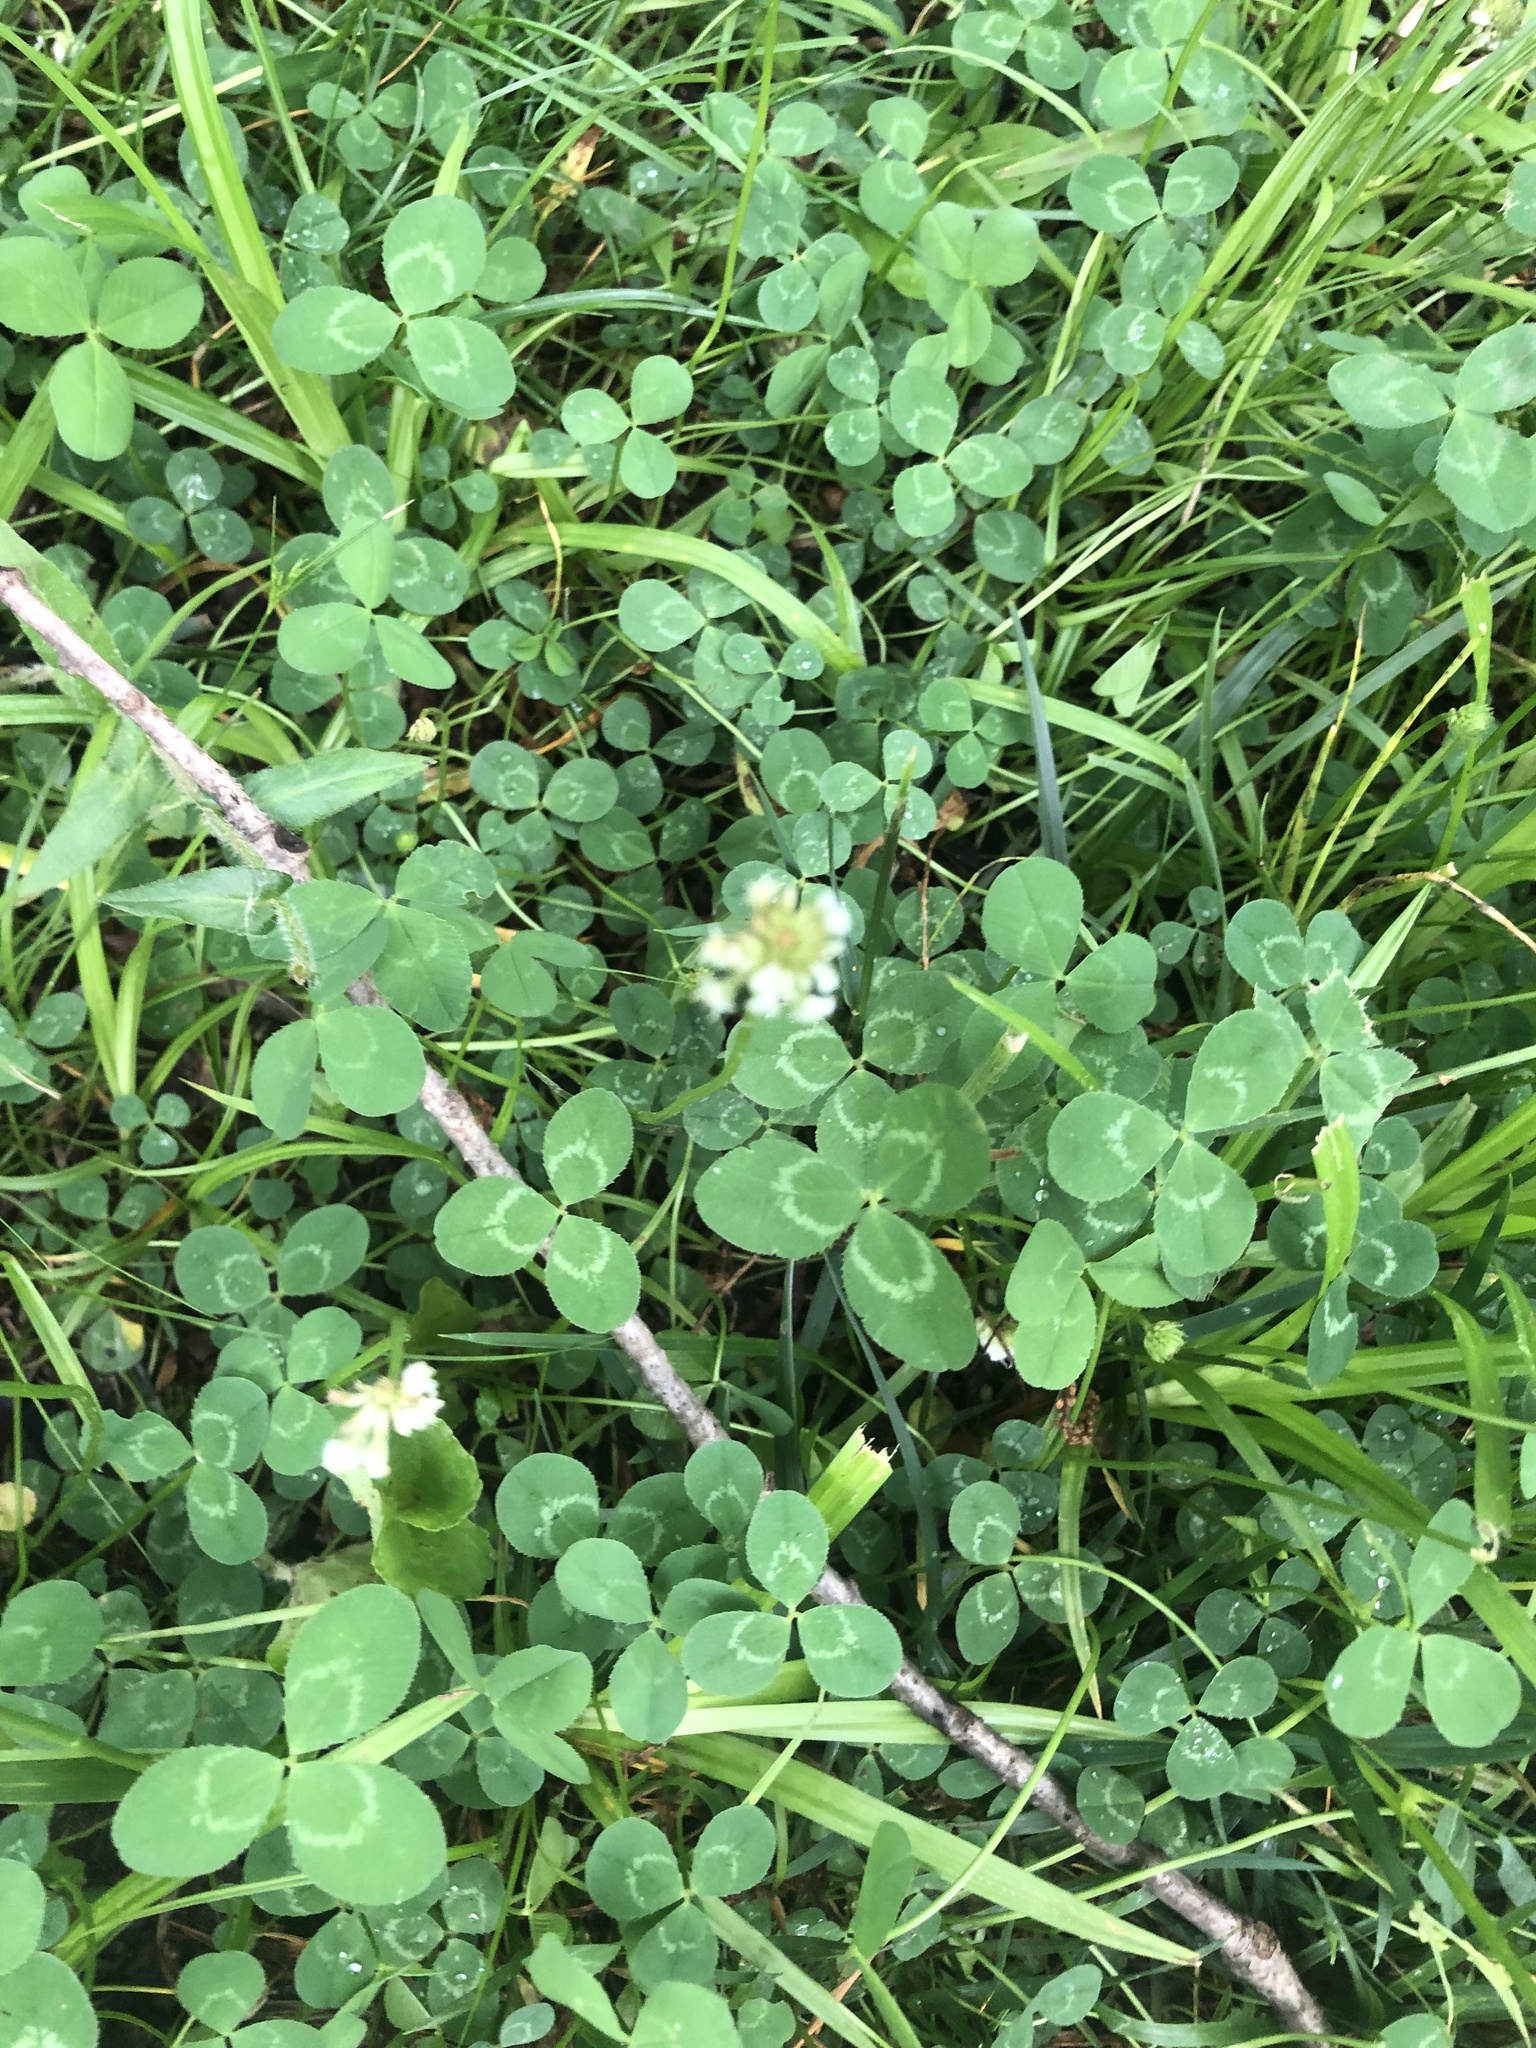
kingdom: Plantae
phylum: Tracheophyta
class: Magnoliopsida
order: Fabales
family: Fabaceae
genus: Trifolium
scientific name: Trifolium repens
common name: White clover
